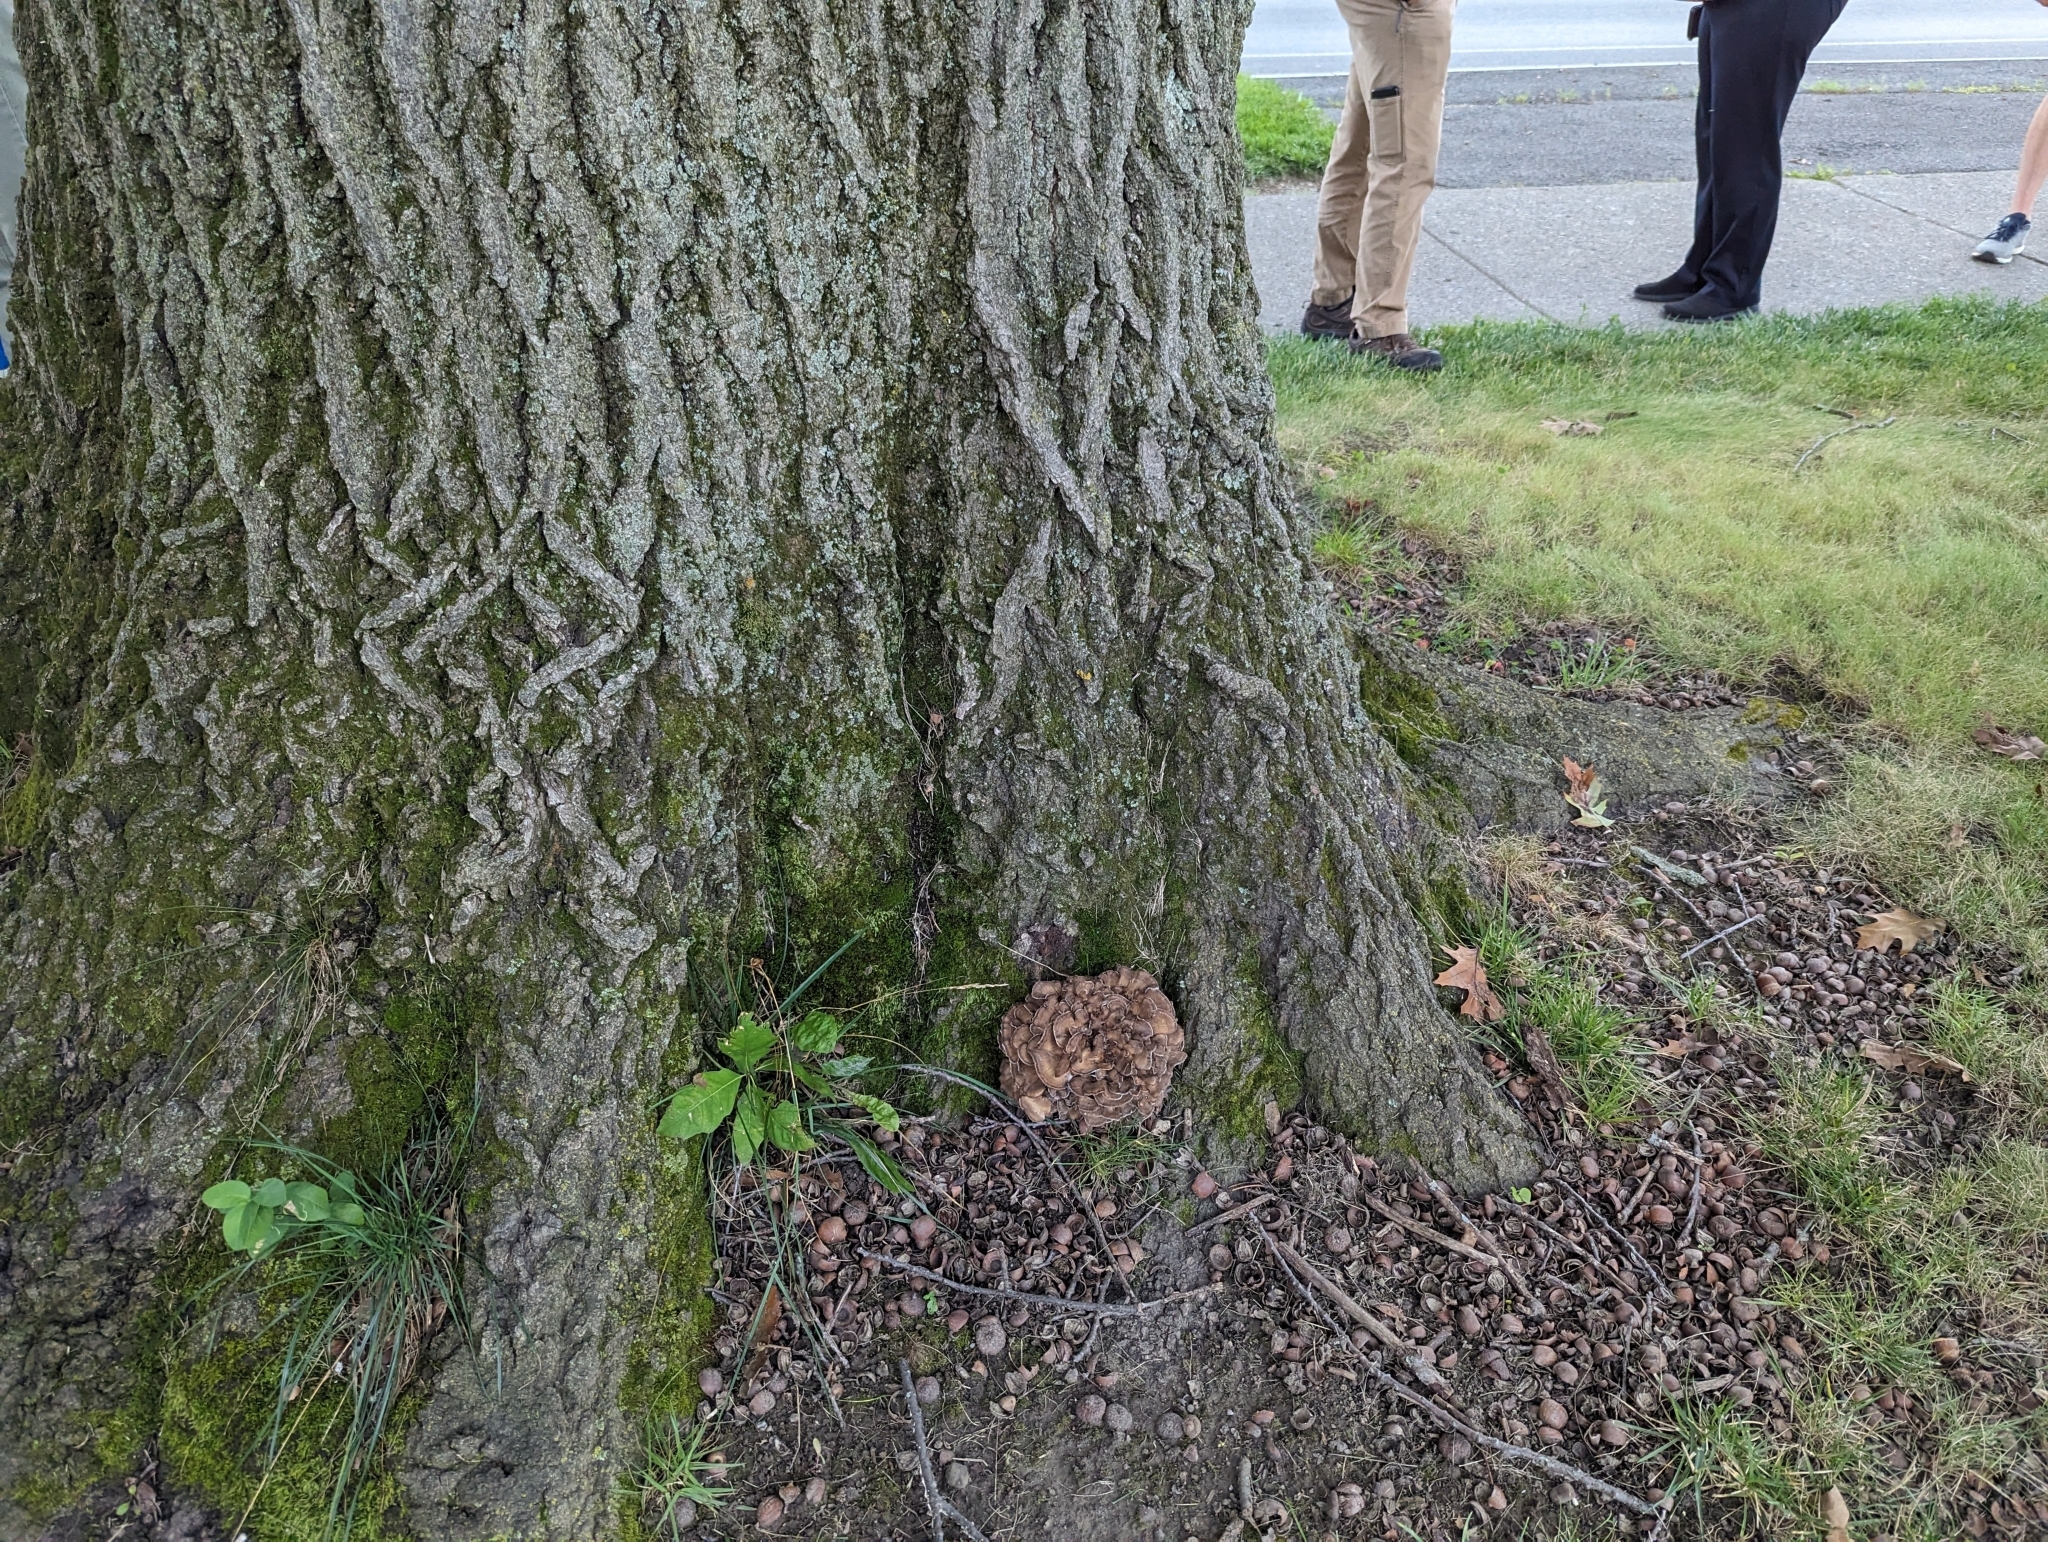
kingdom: Fungi
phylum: Basidiomycota
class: Agaricomycetes
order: Polyporales
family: Grifolaceae
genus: Grifola
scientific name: Grifola frondosa
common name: Hen of the woods
